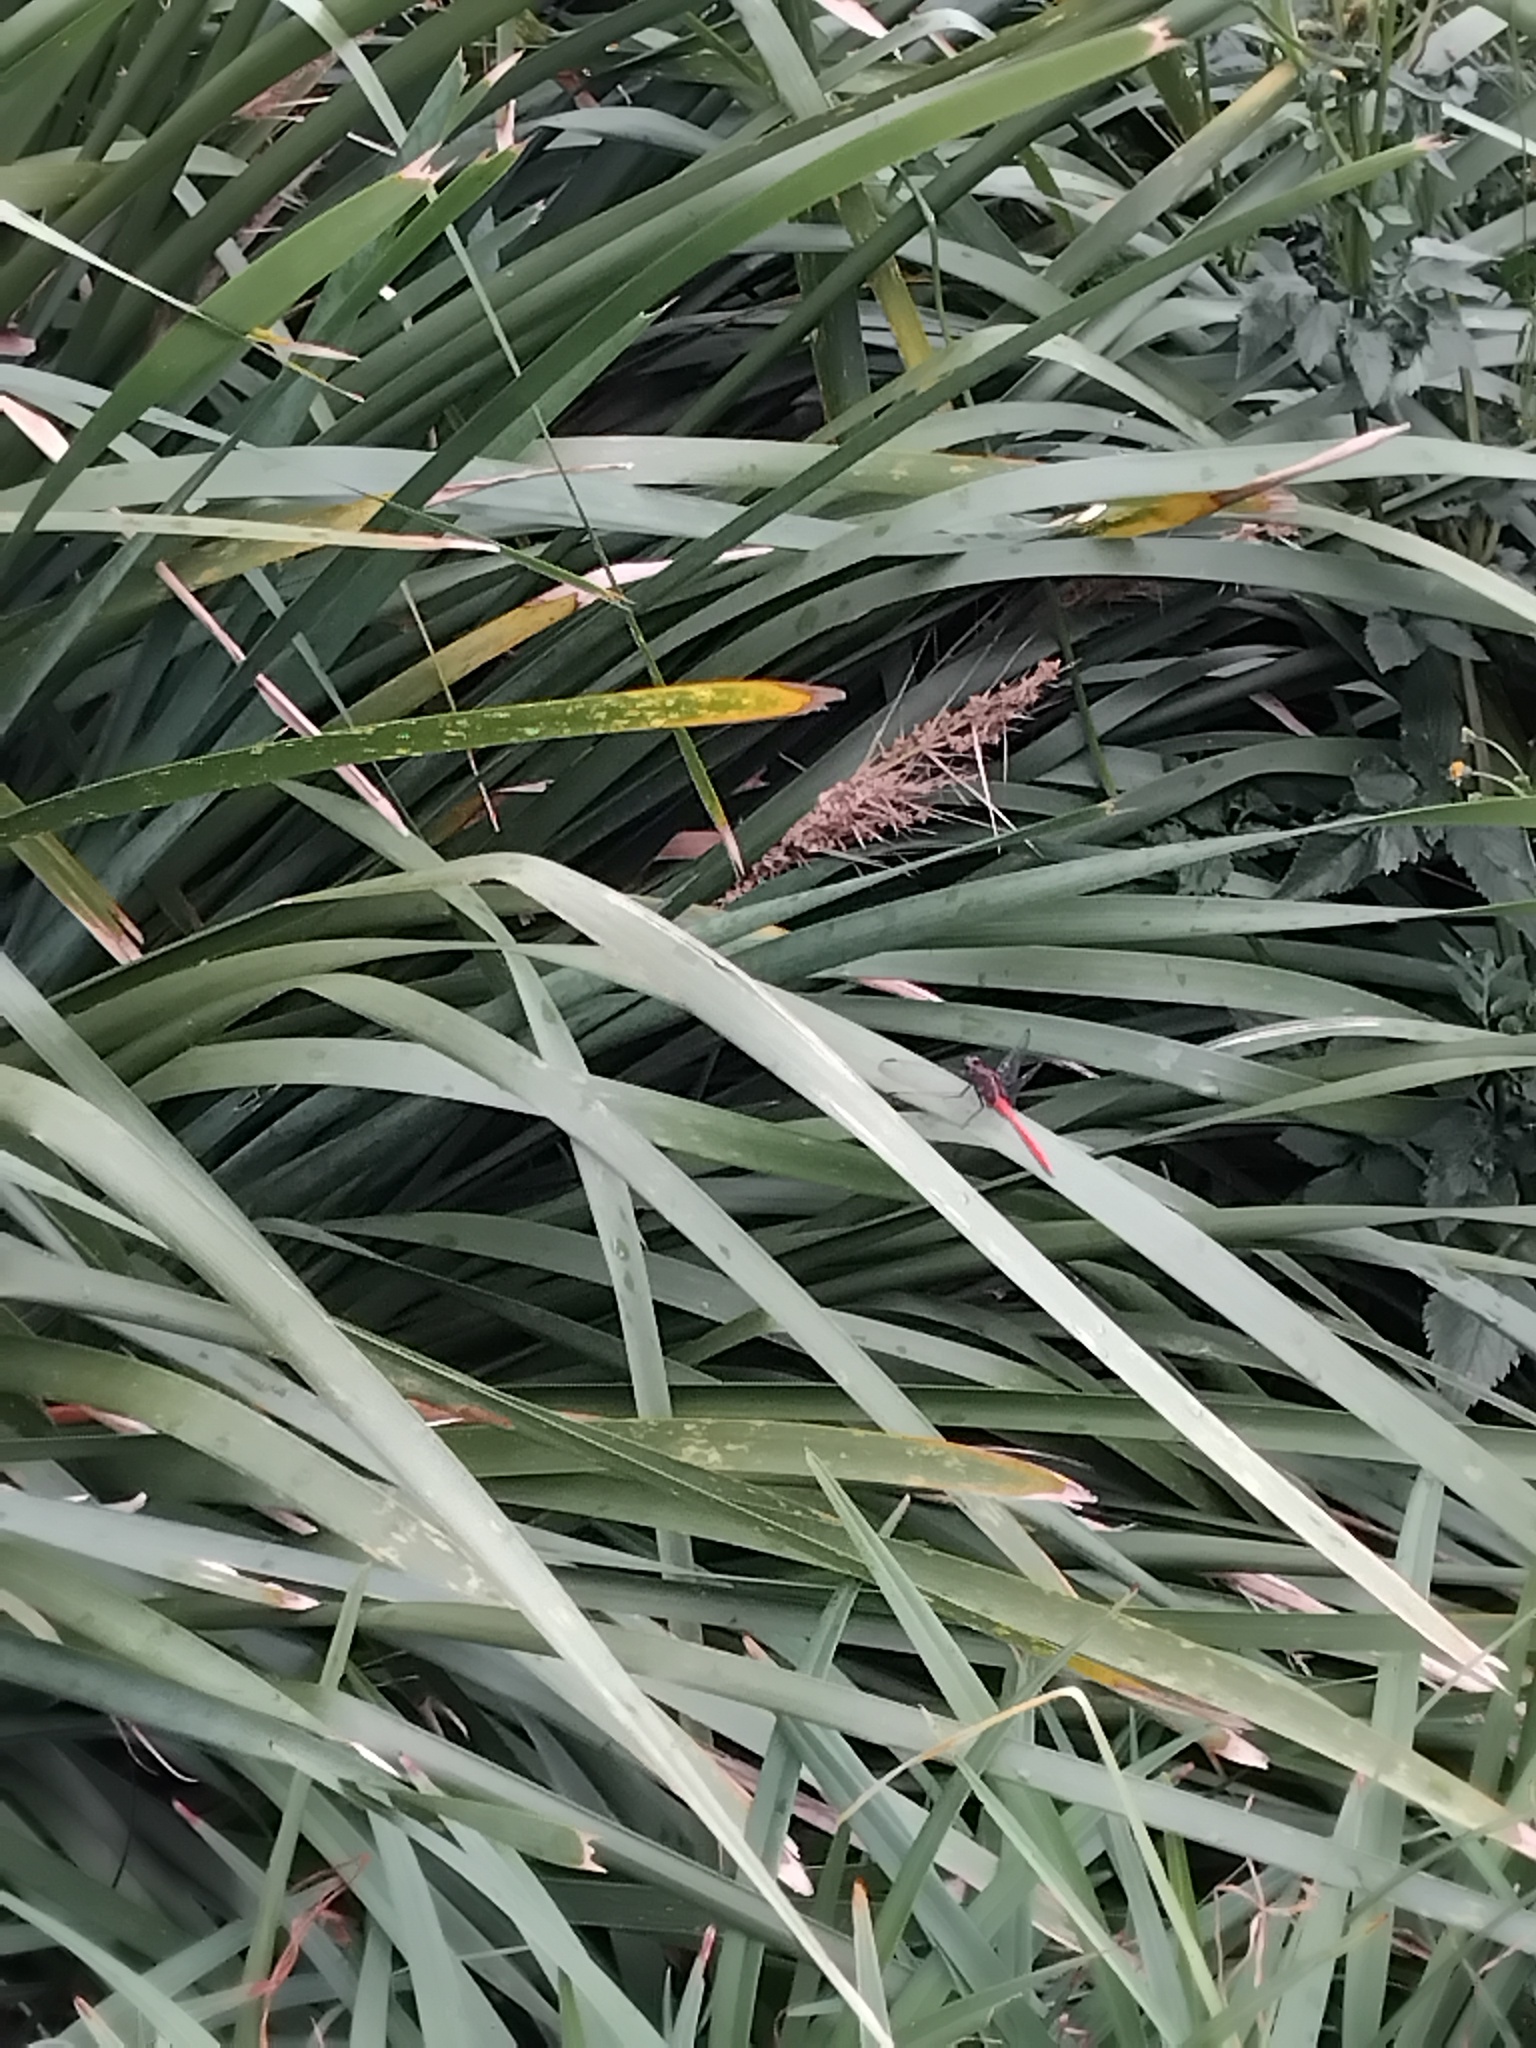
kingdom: Animalia
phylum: Arthropoda
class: Insecta
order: Odonata
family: Libellulidae
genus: Orthetrum
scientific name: Orthetrum villosovittatum
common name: Firery skimmer
